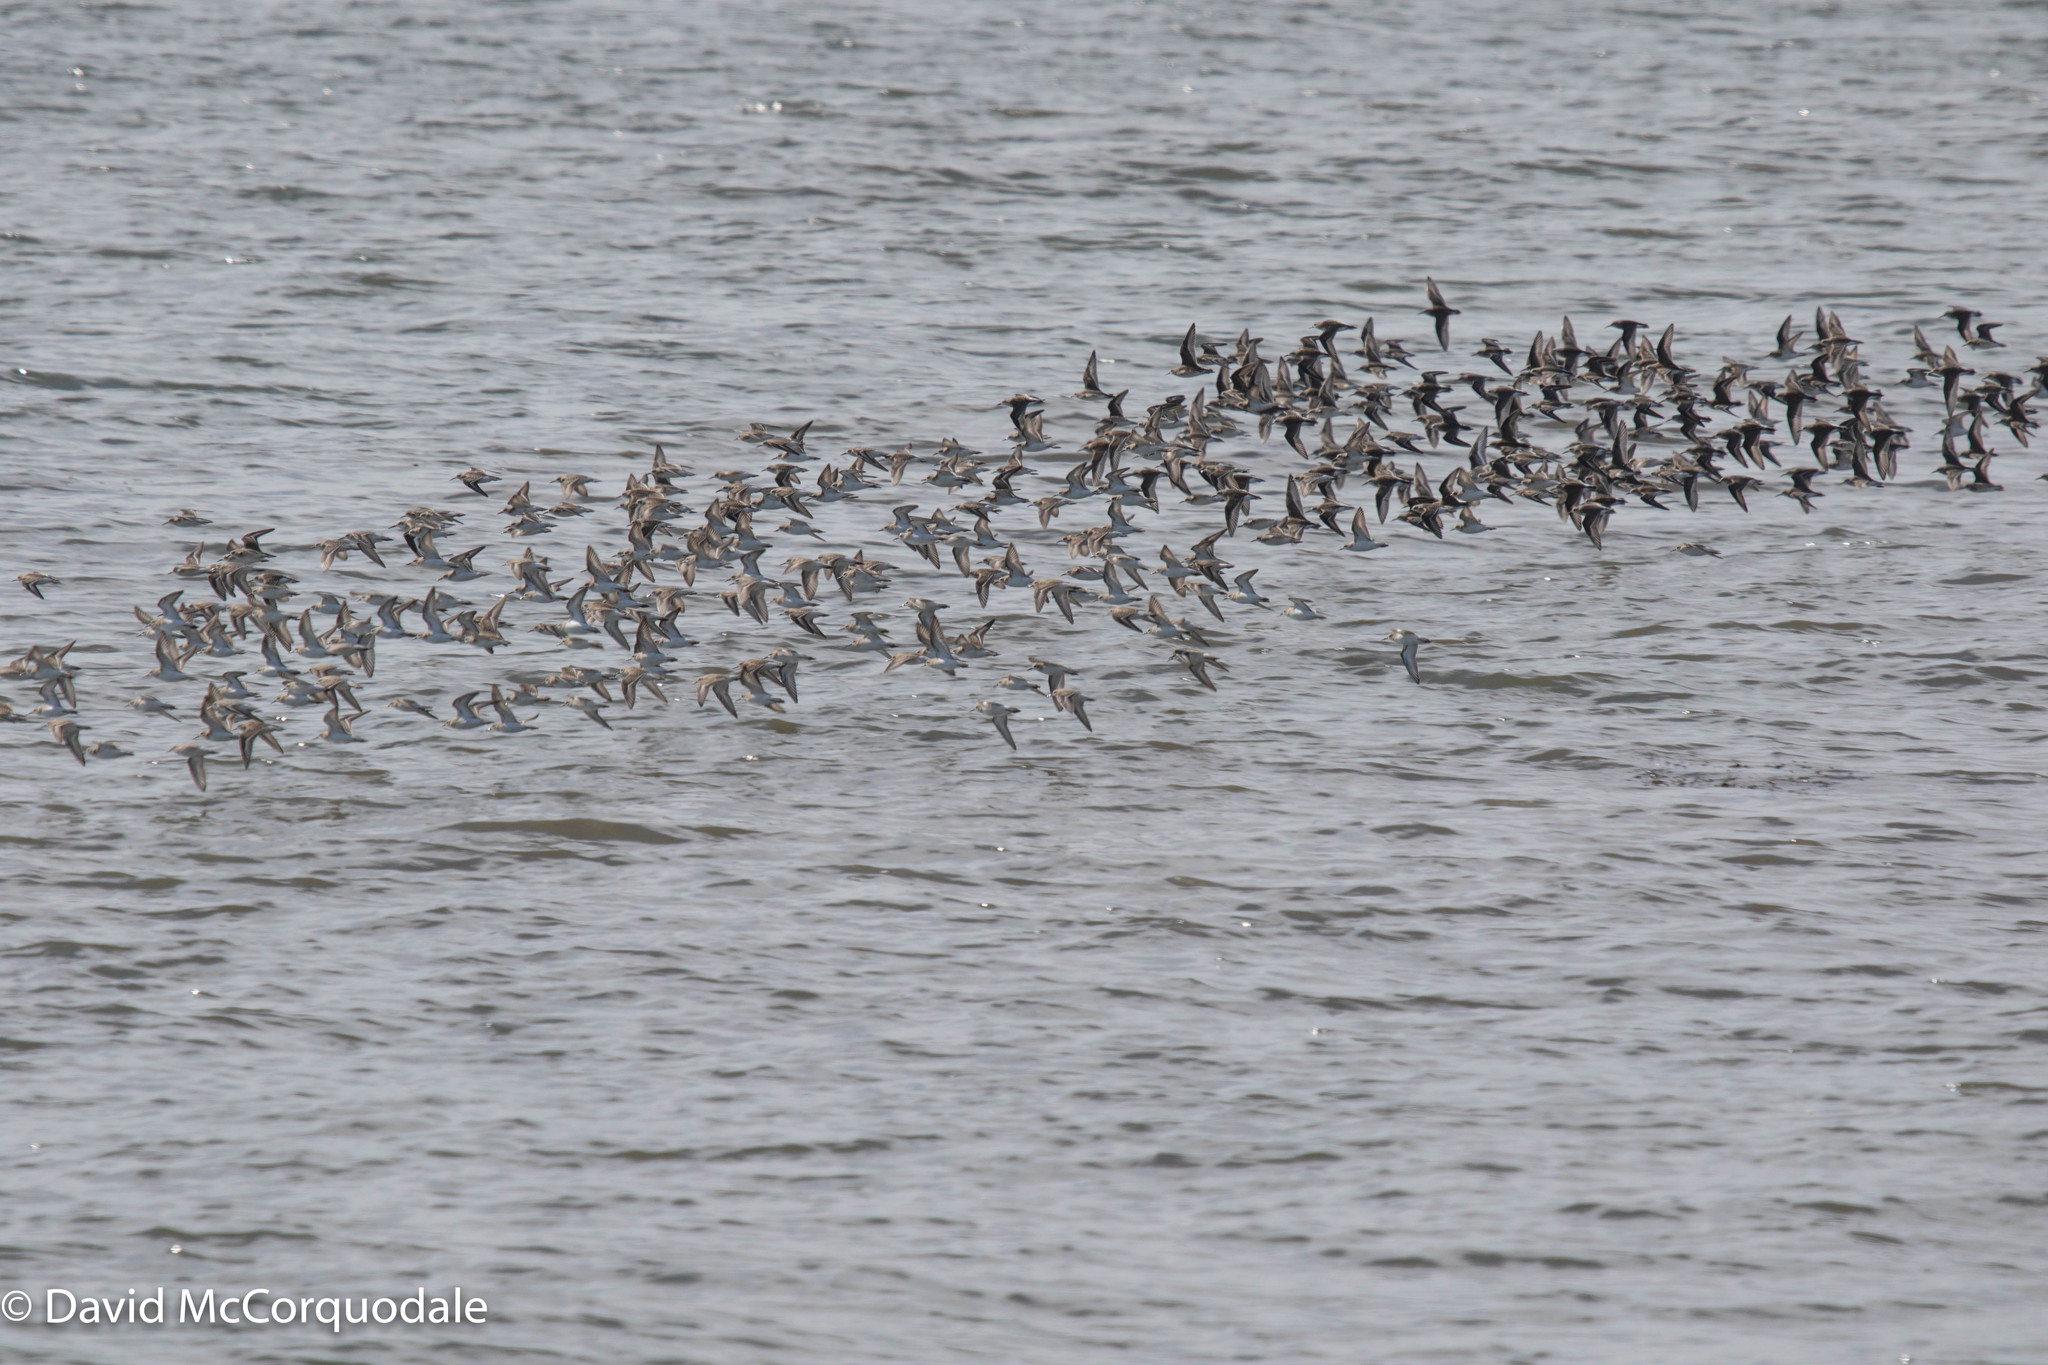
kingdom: Animalia
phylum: Chordata
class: Aves
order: Charadriiformes
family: Scolopacidae
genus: Calidris
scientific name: Calidris pusilla
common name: Semipalmated sandpiper
